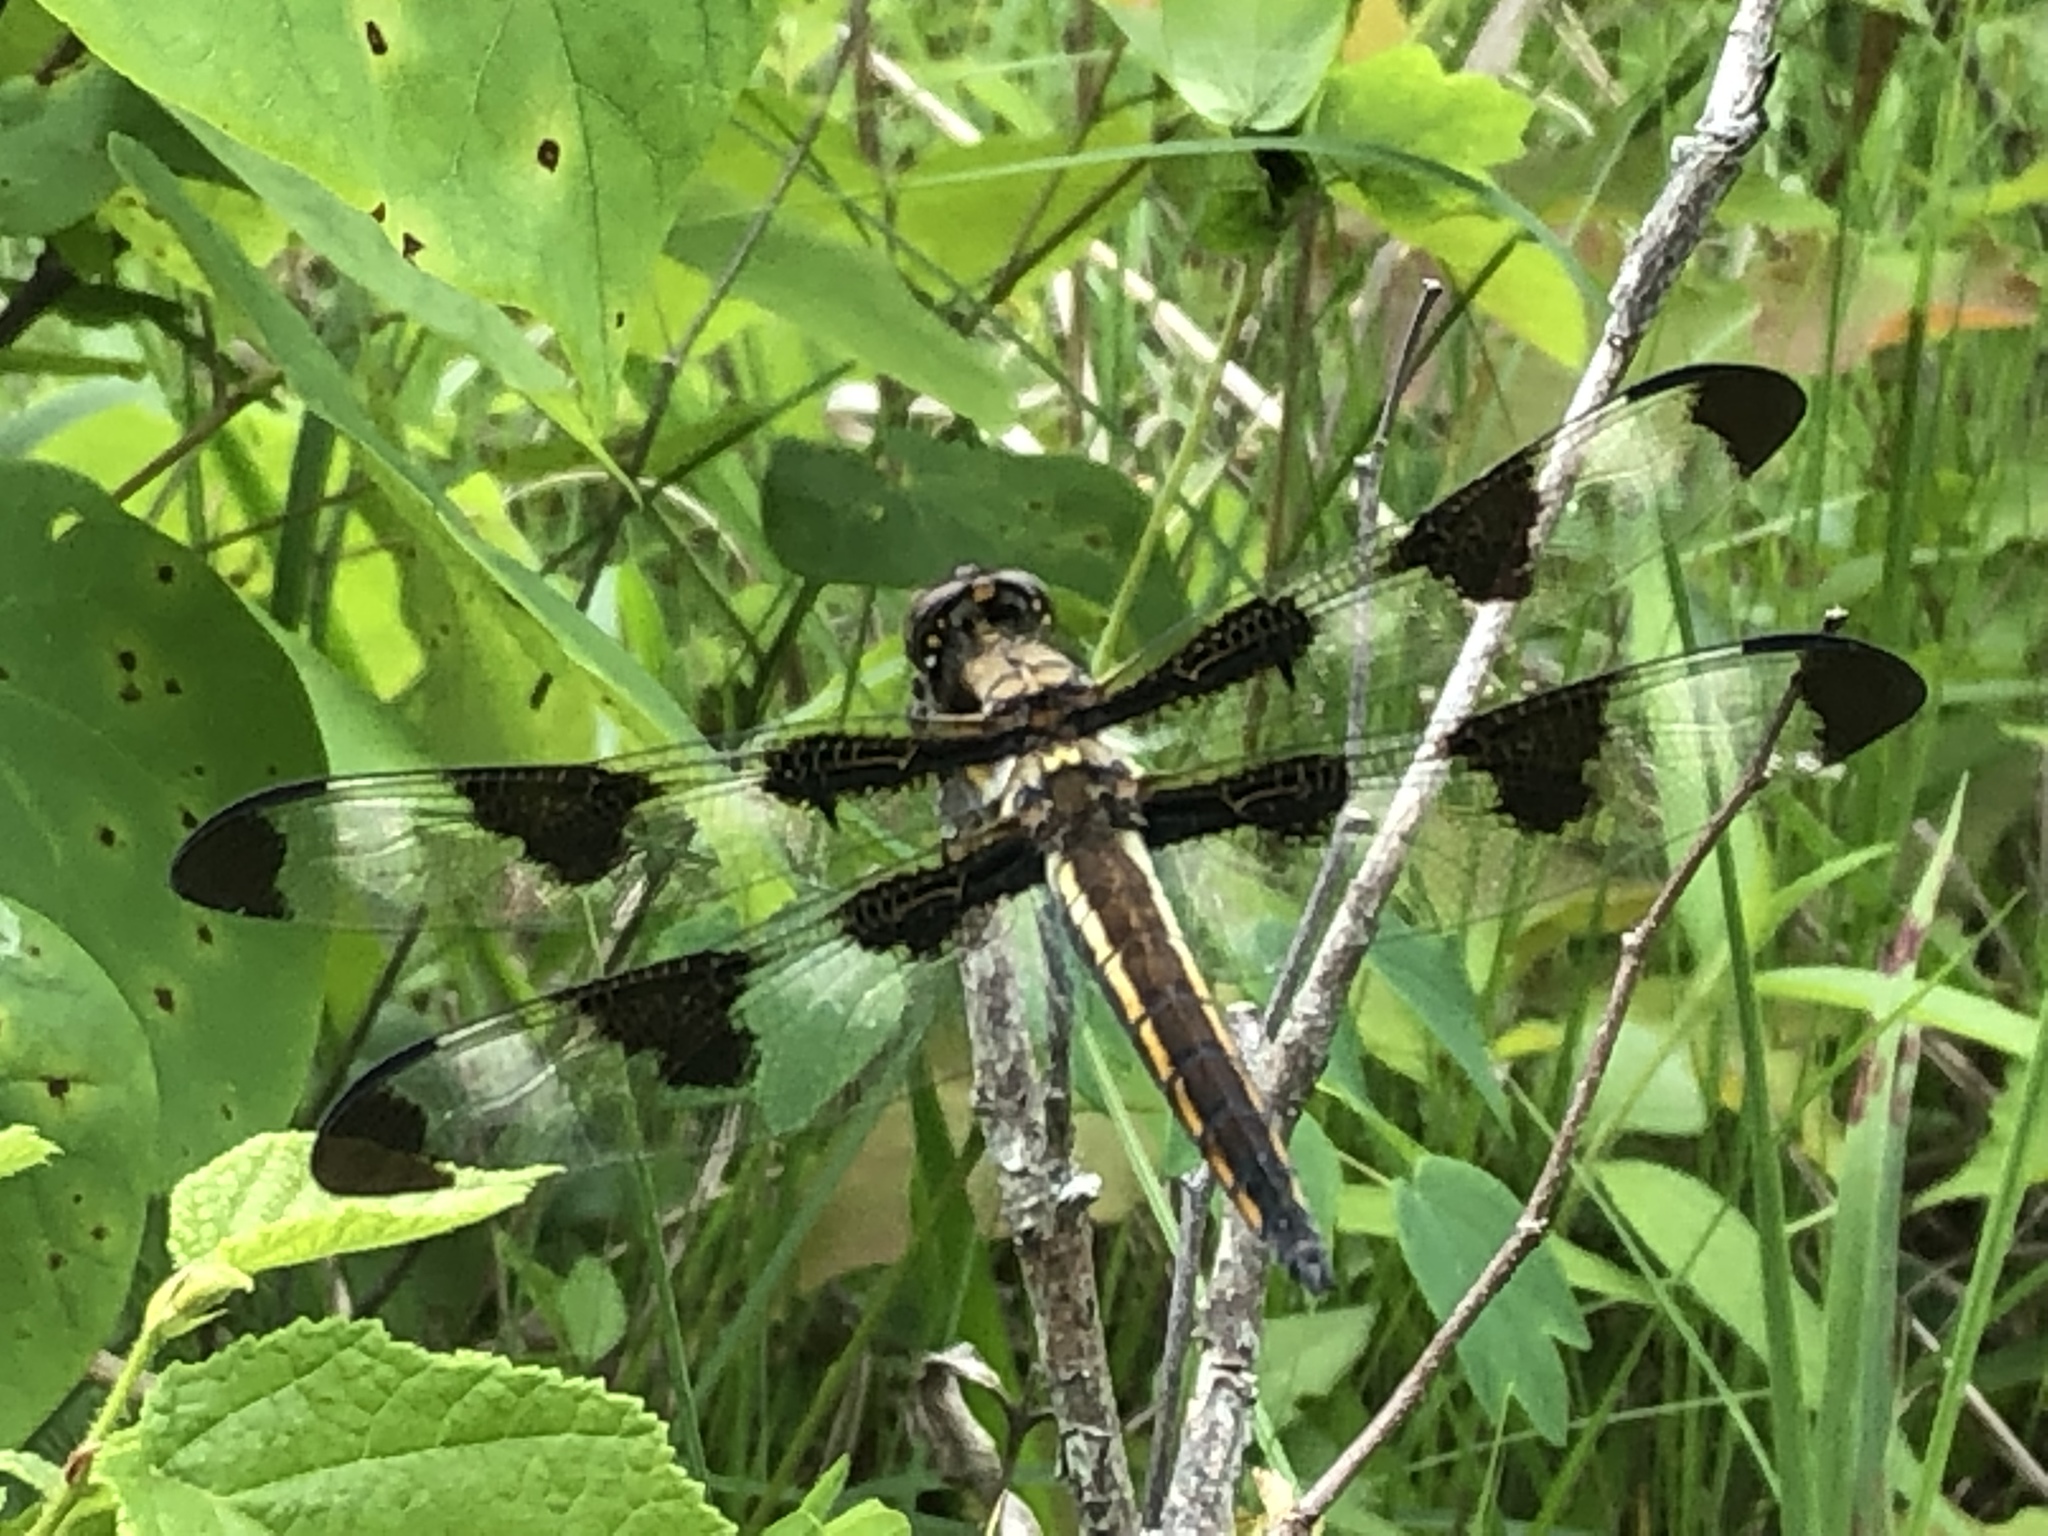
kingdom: Animalia
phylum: Arthropoda
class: Insecta
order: Odonata
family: Libellulidae
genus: Libellula
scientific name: Libellula pulchella
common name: Twelve-spotted skimmer
